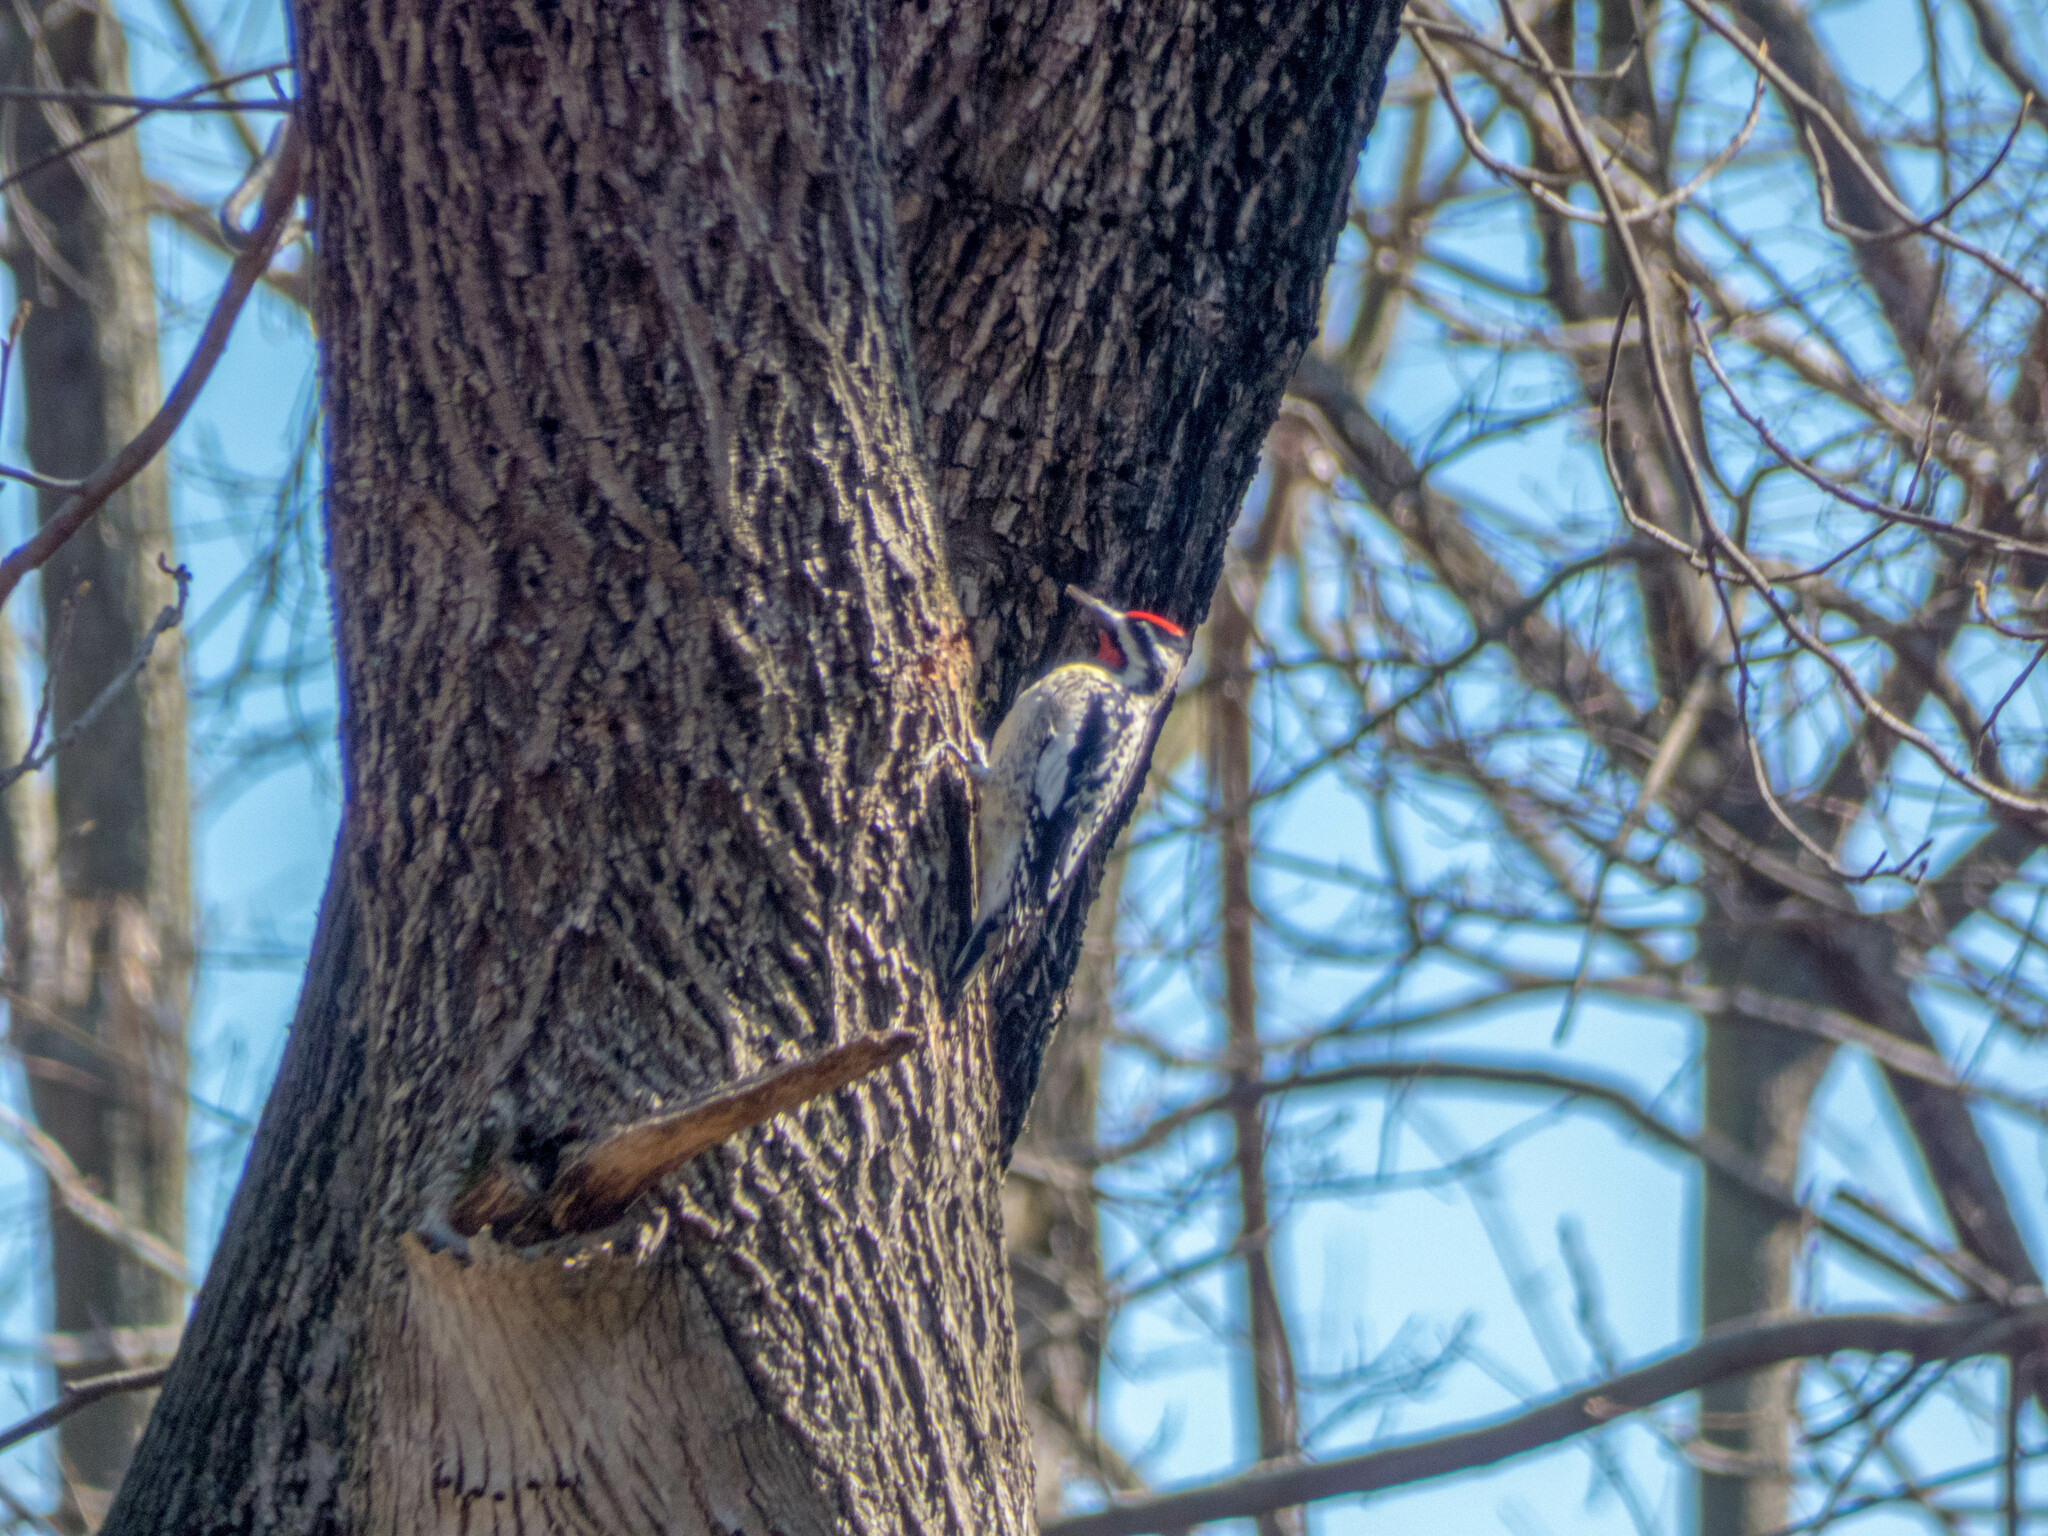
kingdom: Animalia
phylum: Chordata
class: Aves
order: Piciformes
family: Picidae
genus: Sphyrapicus
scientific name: Sphyrapicus varius
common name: Yellow-bellied sapsucker
